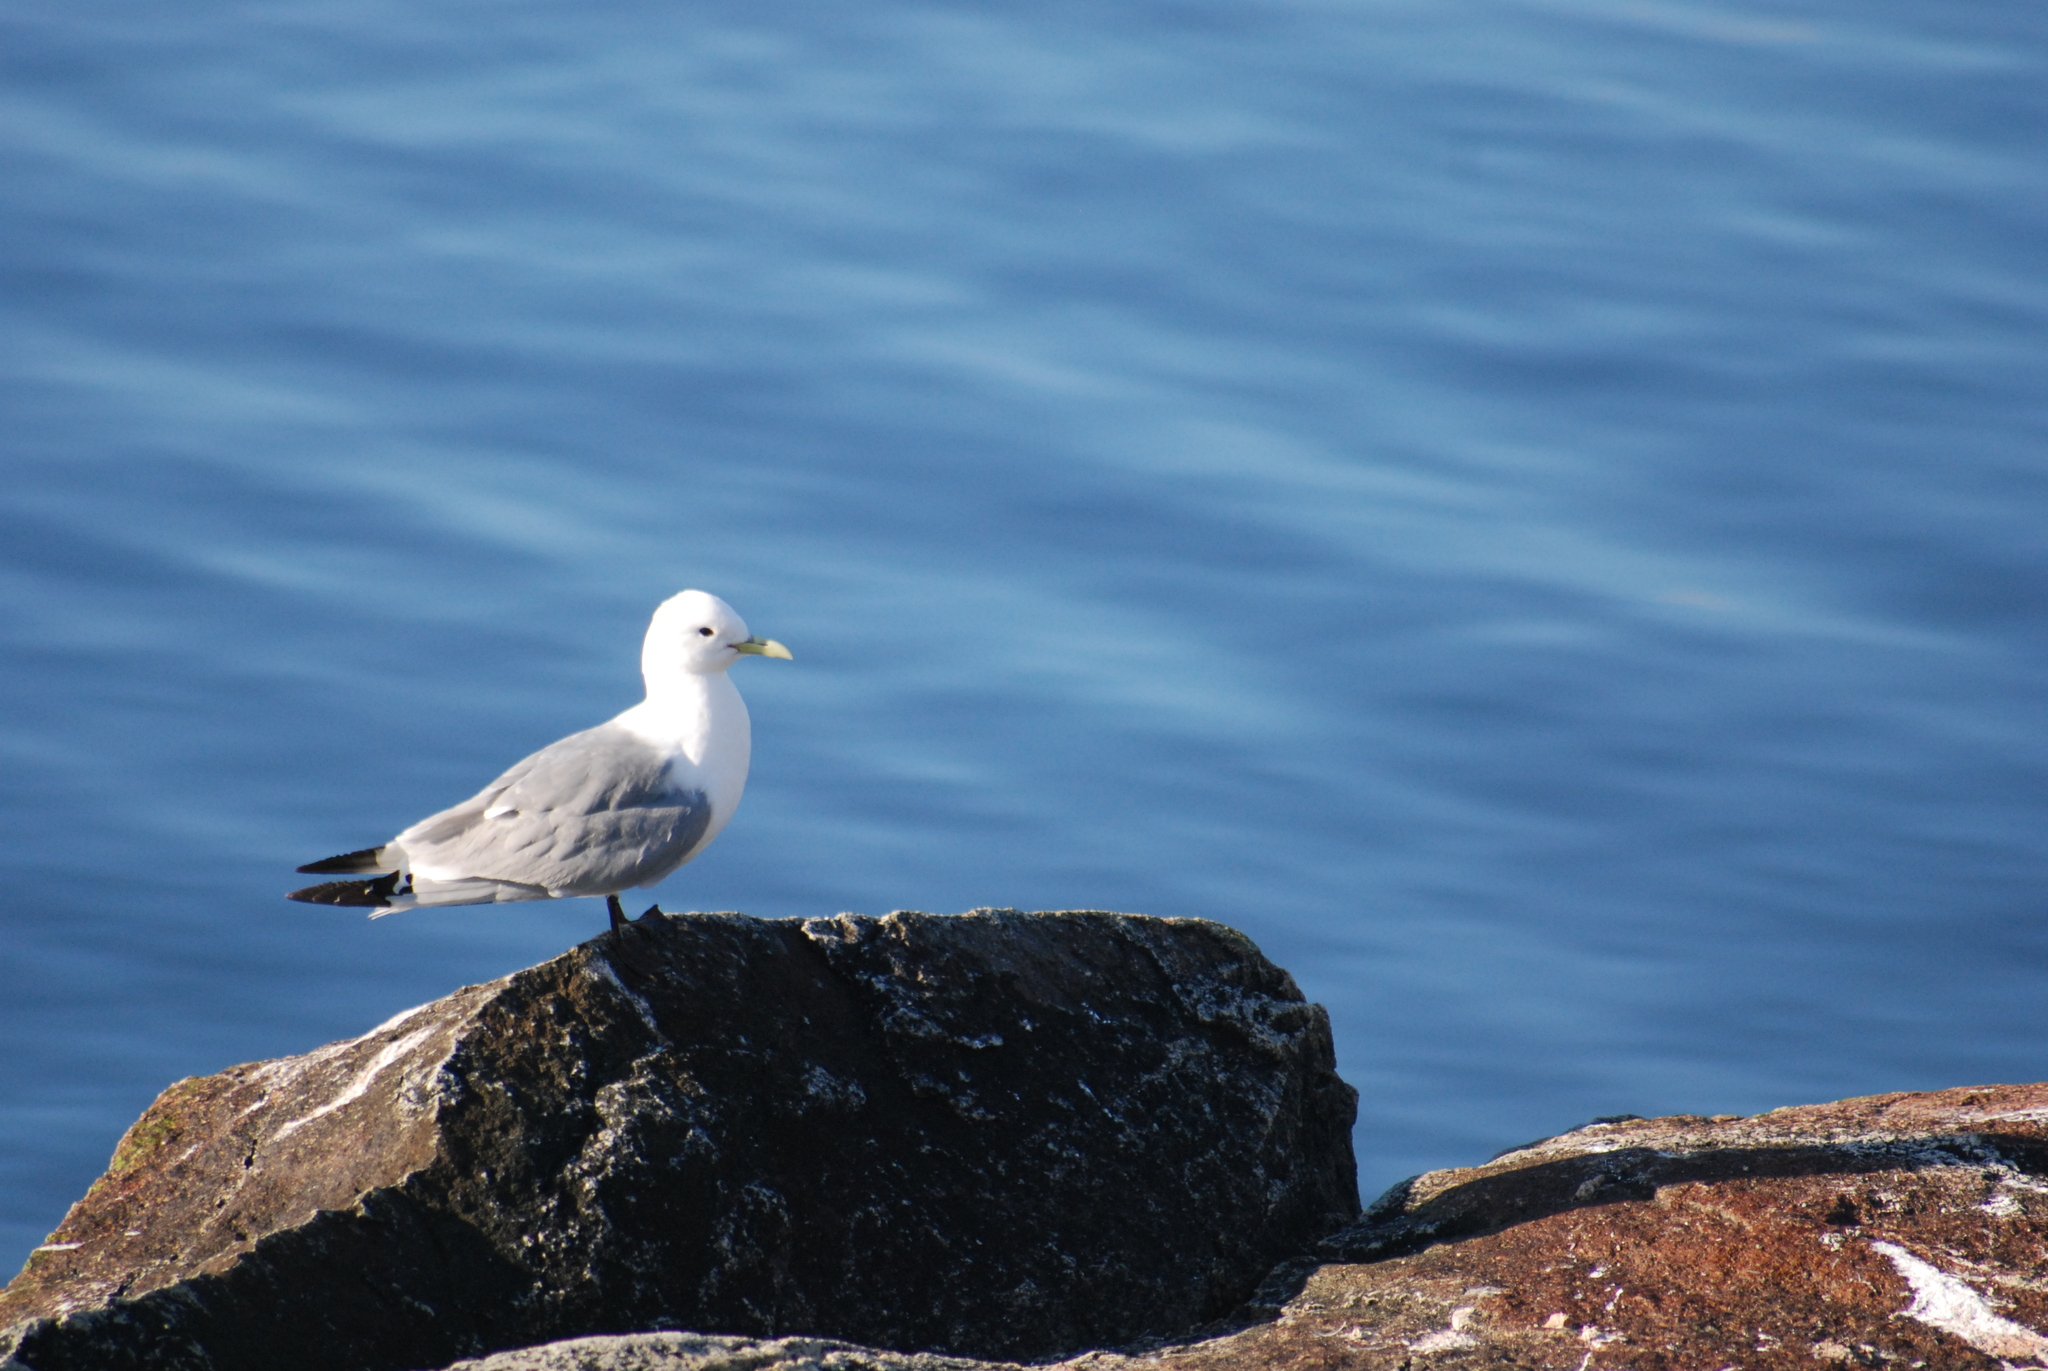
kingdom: Animalia
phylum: Chordata
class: Aves
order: Charadriiformes
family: Laridae
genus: Rissa
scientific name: Rissa tridactyla
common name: Black-legged kittiwake
